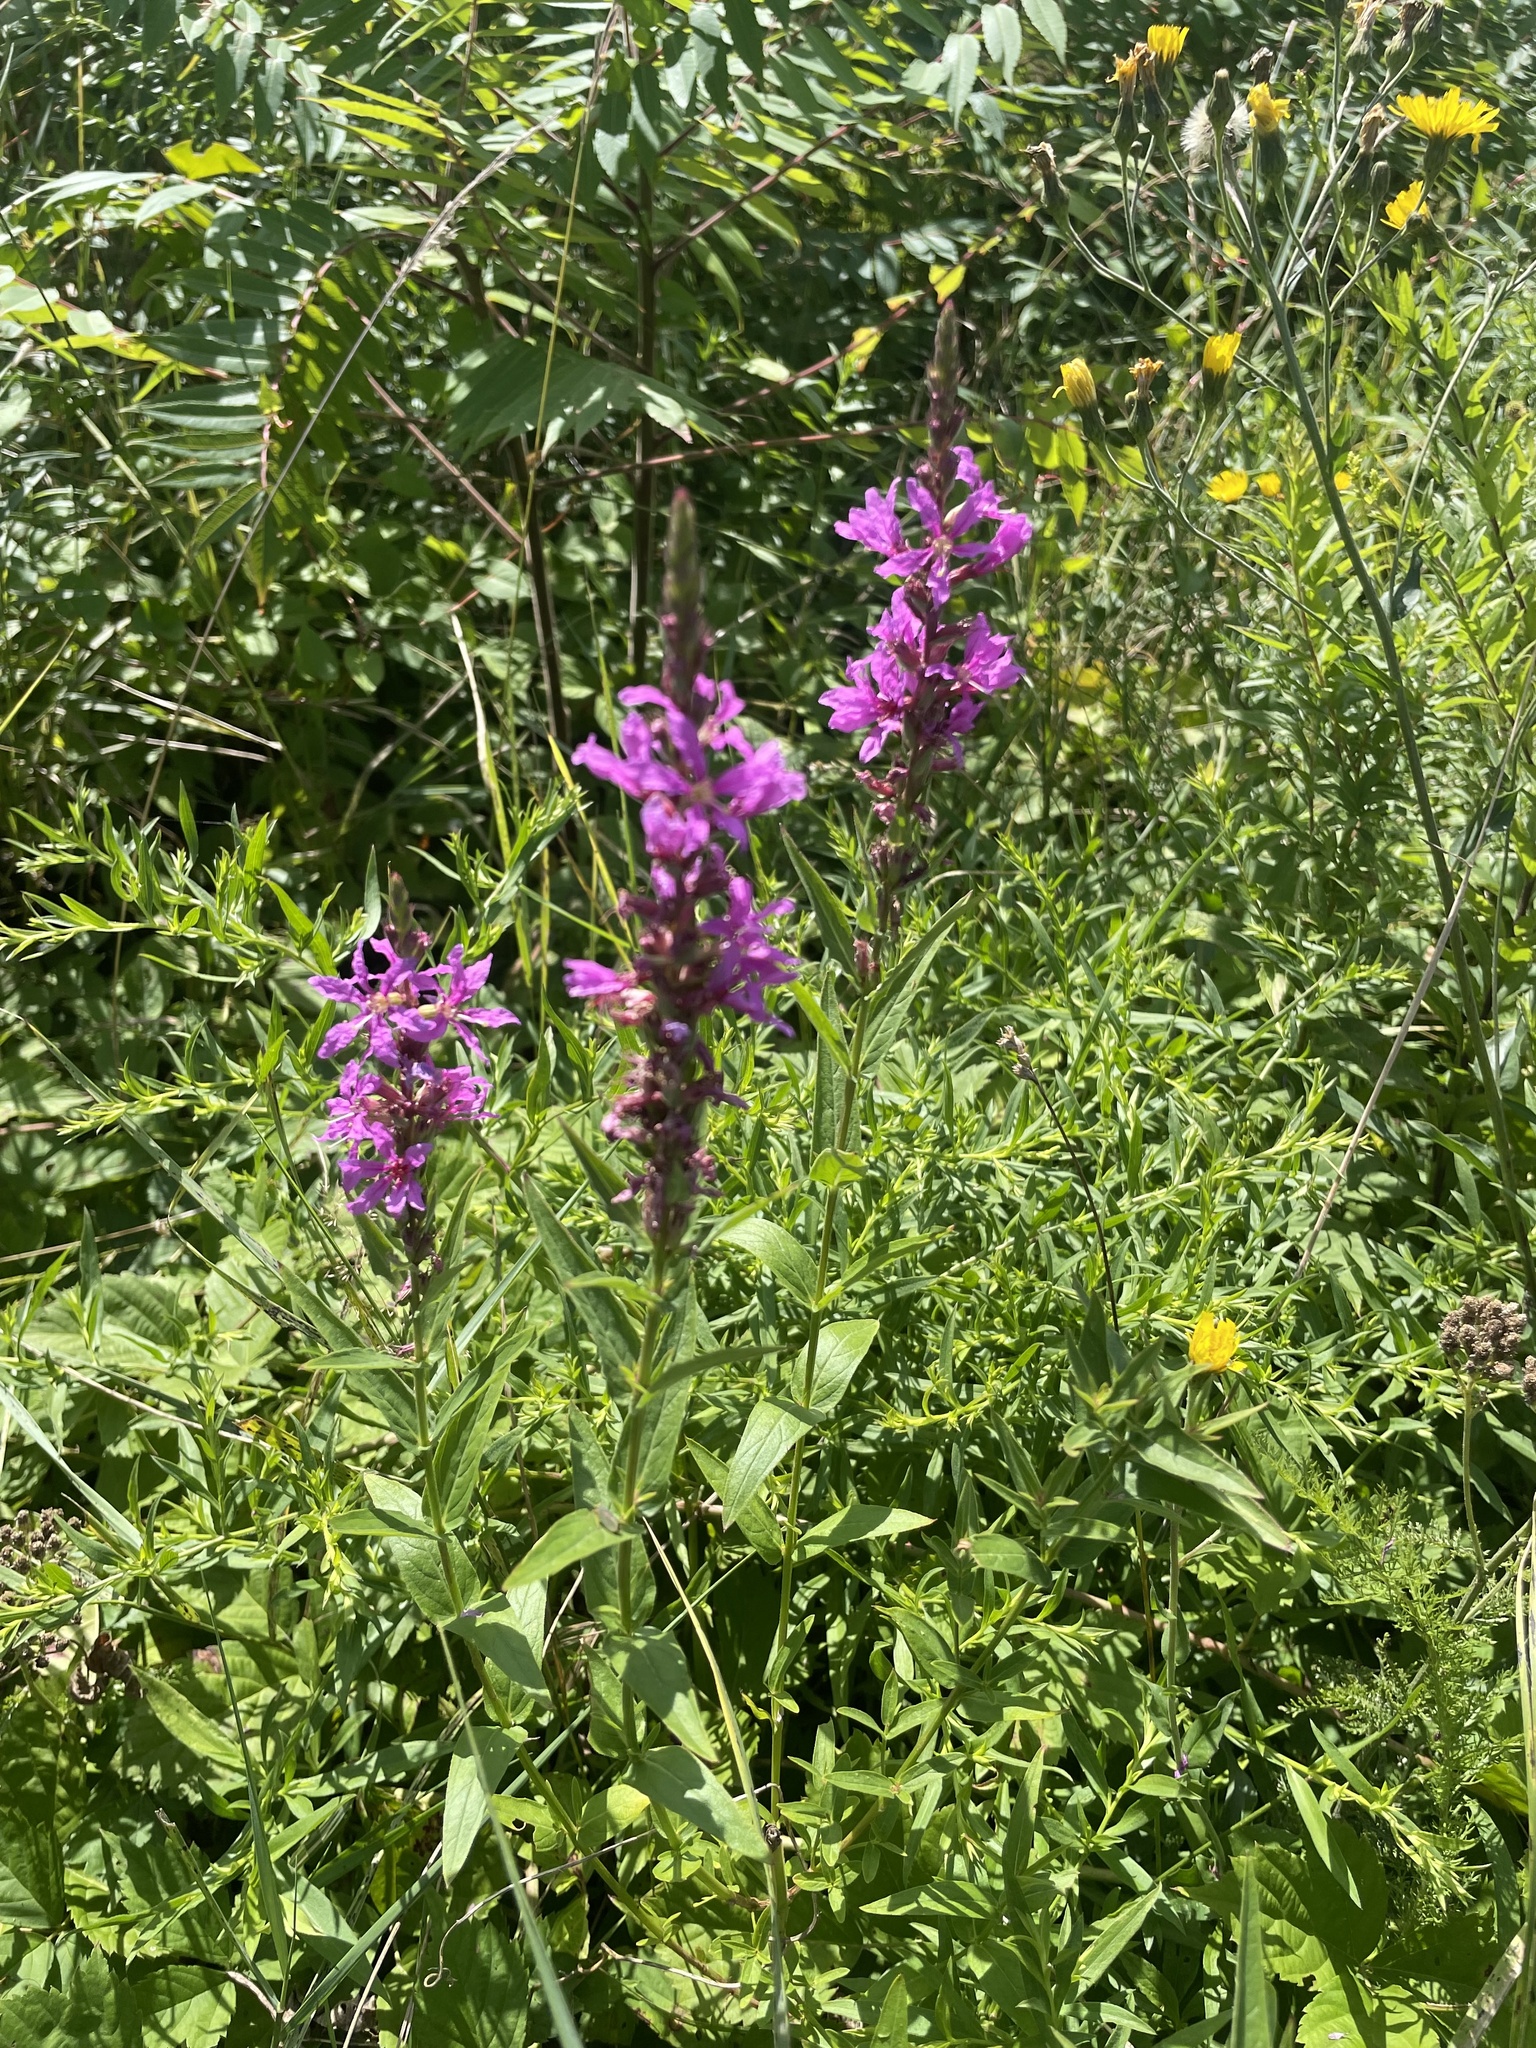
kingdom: Plantae
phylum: Tracheophyta
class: Magnoliopsida
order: Myrtales
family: Lythraceae
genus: Lythrum
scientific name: Lythrum salicaria
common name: Purple loosestrife
